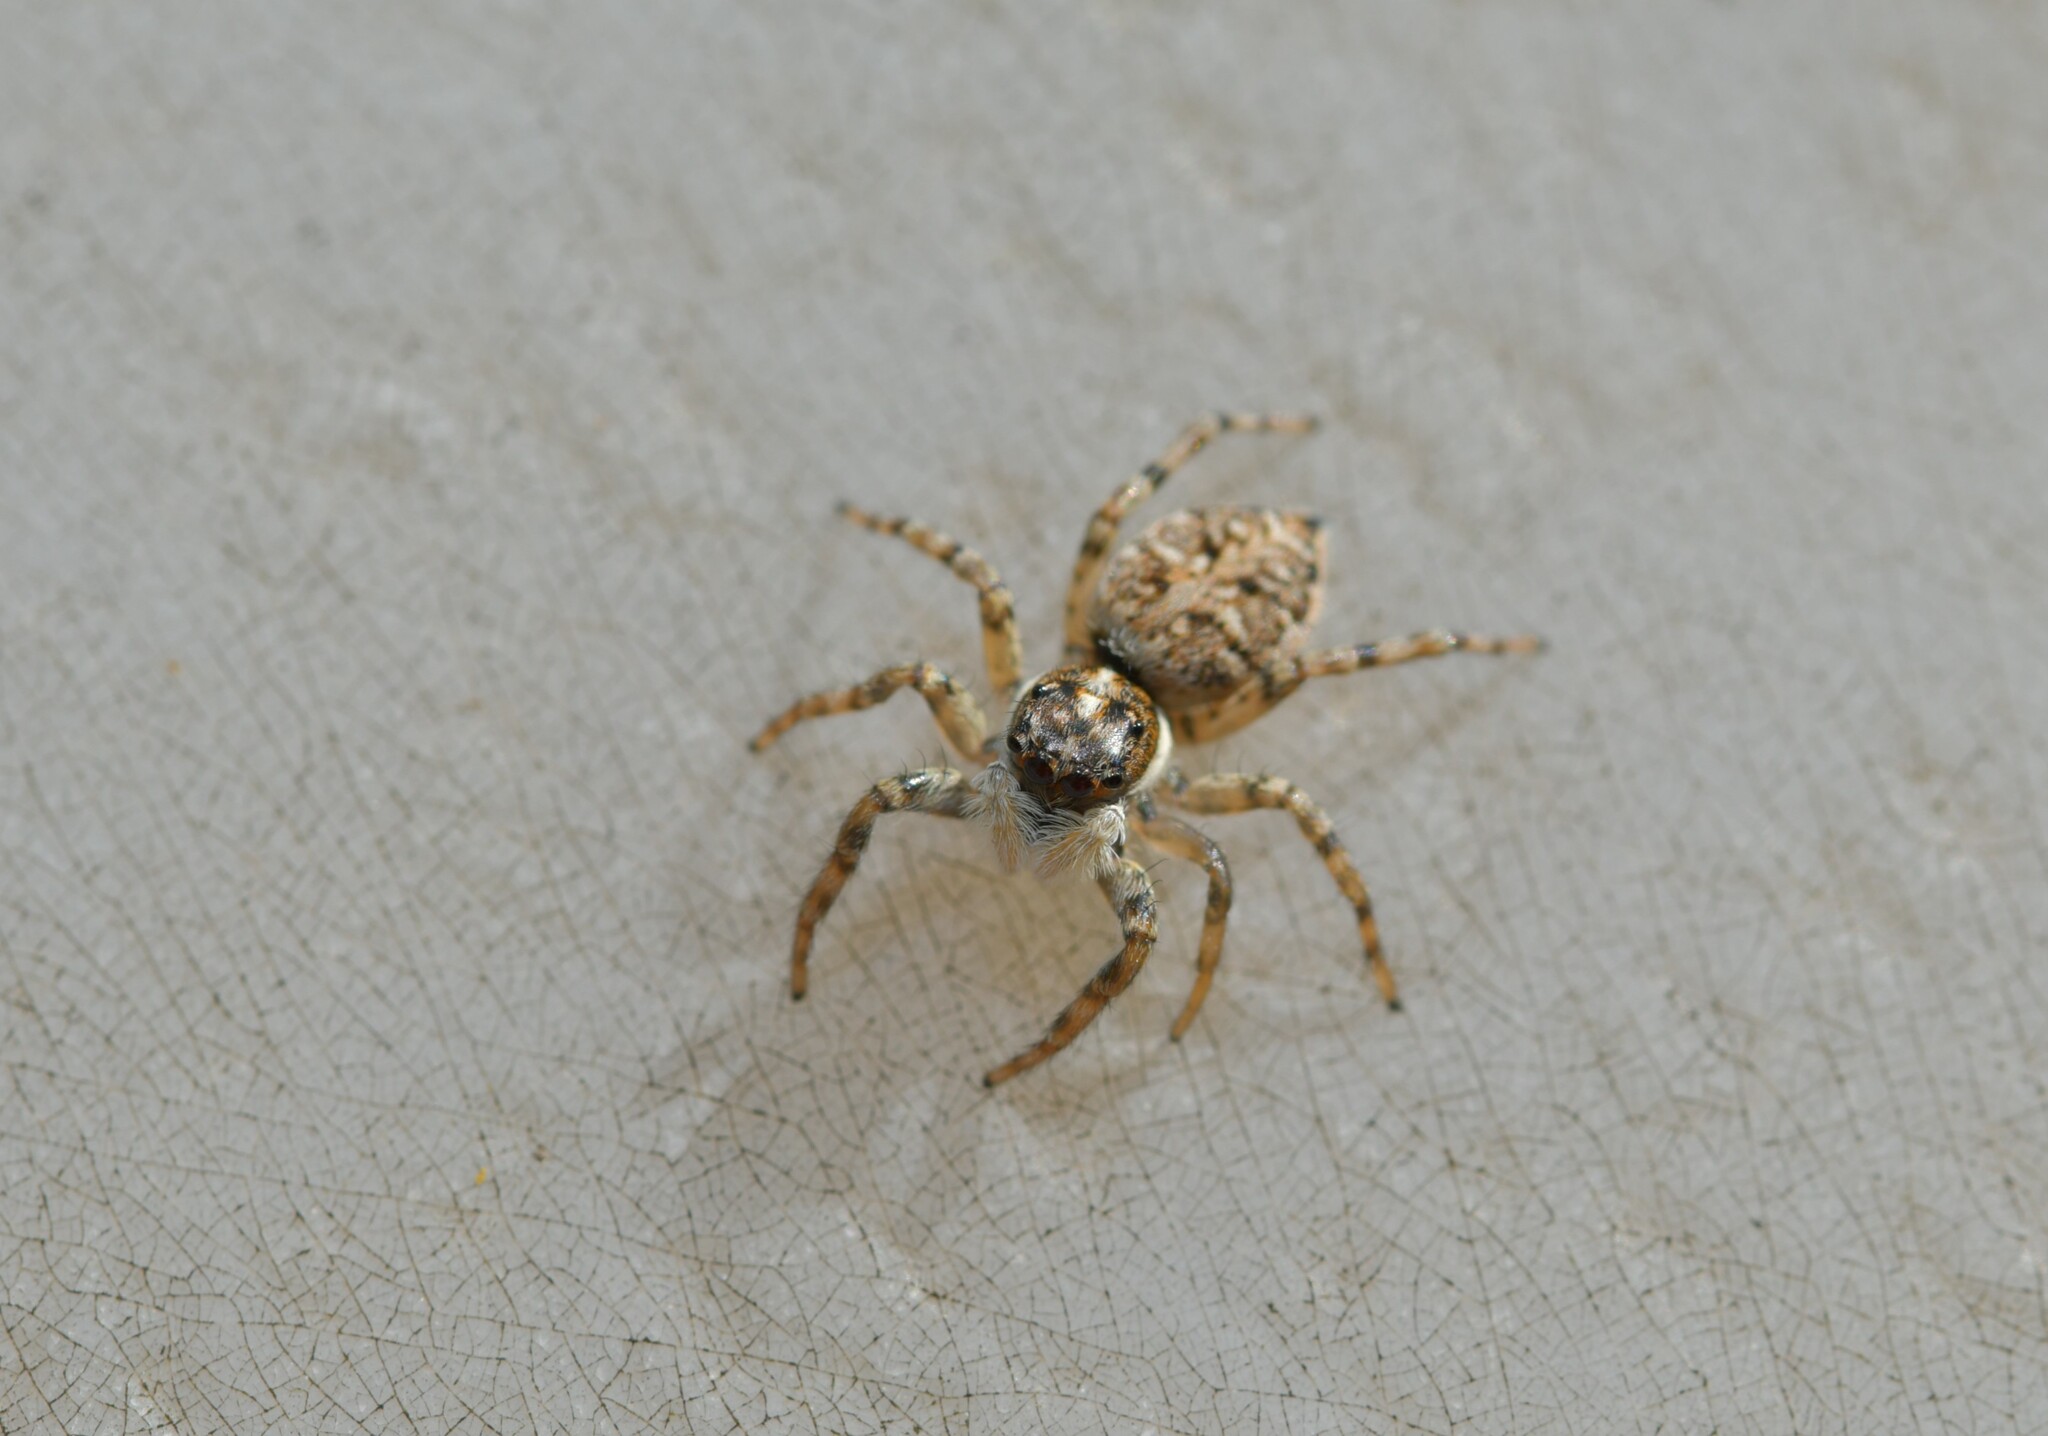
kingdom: Animalia
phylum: Arthropoda
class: Arachnida
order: Araneae
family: Salticidae
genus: Menemerus
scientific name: Menemerus semilimbatus
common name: Jumping spider
